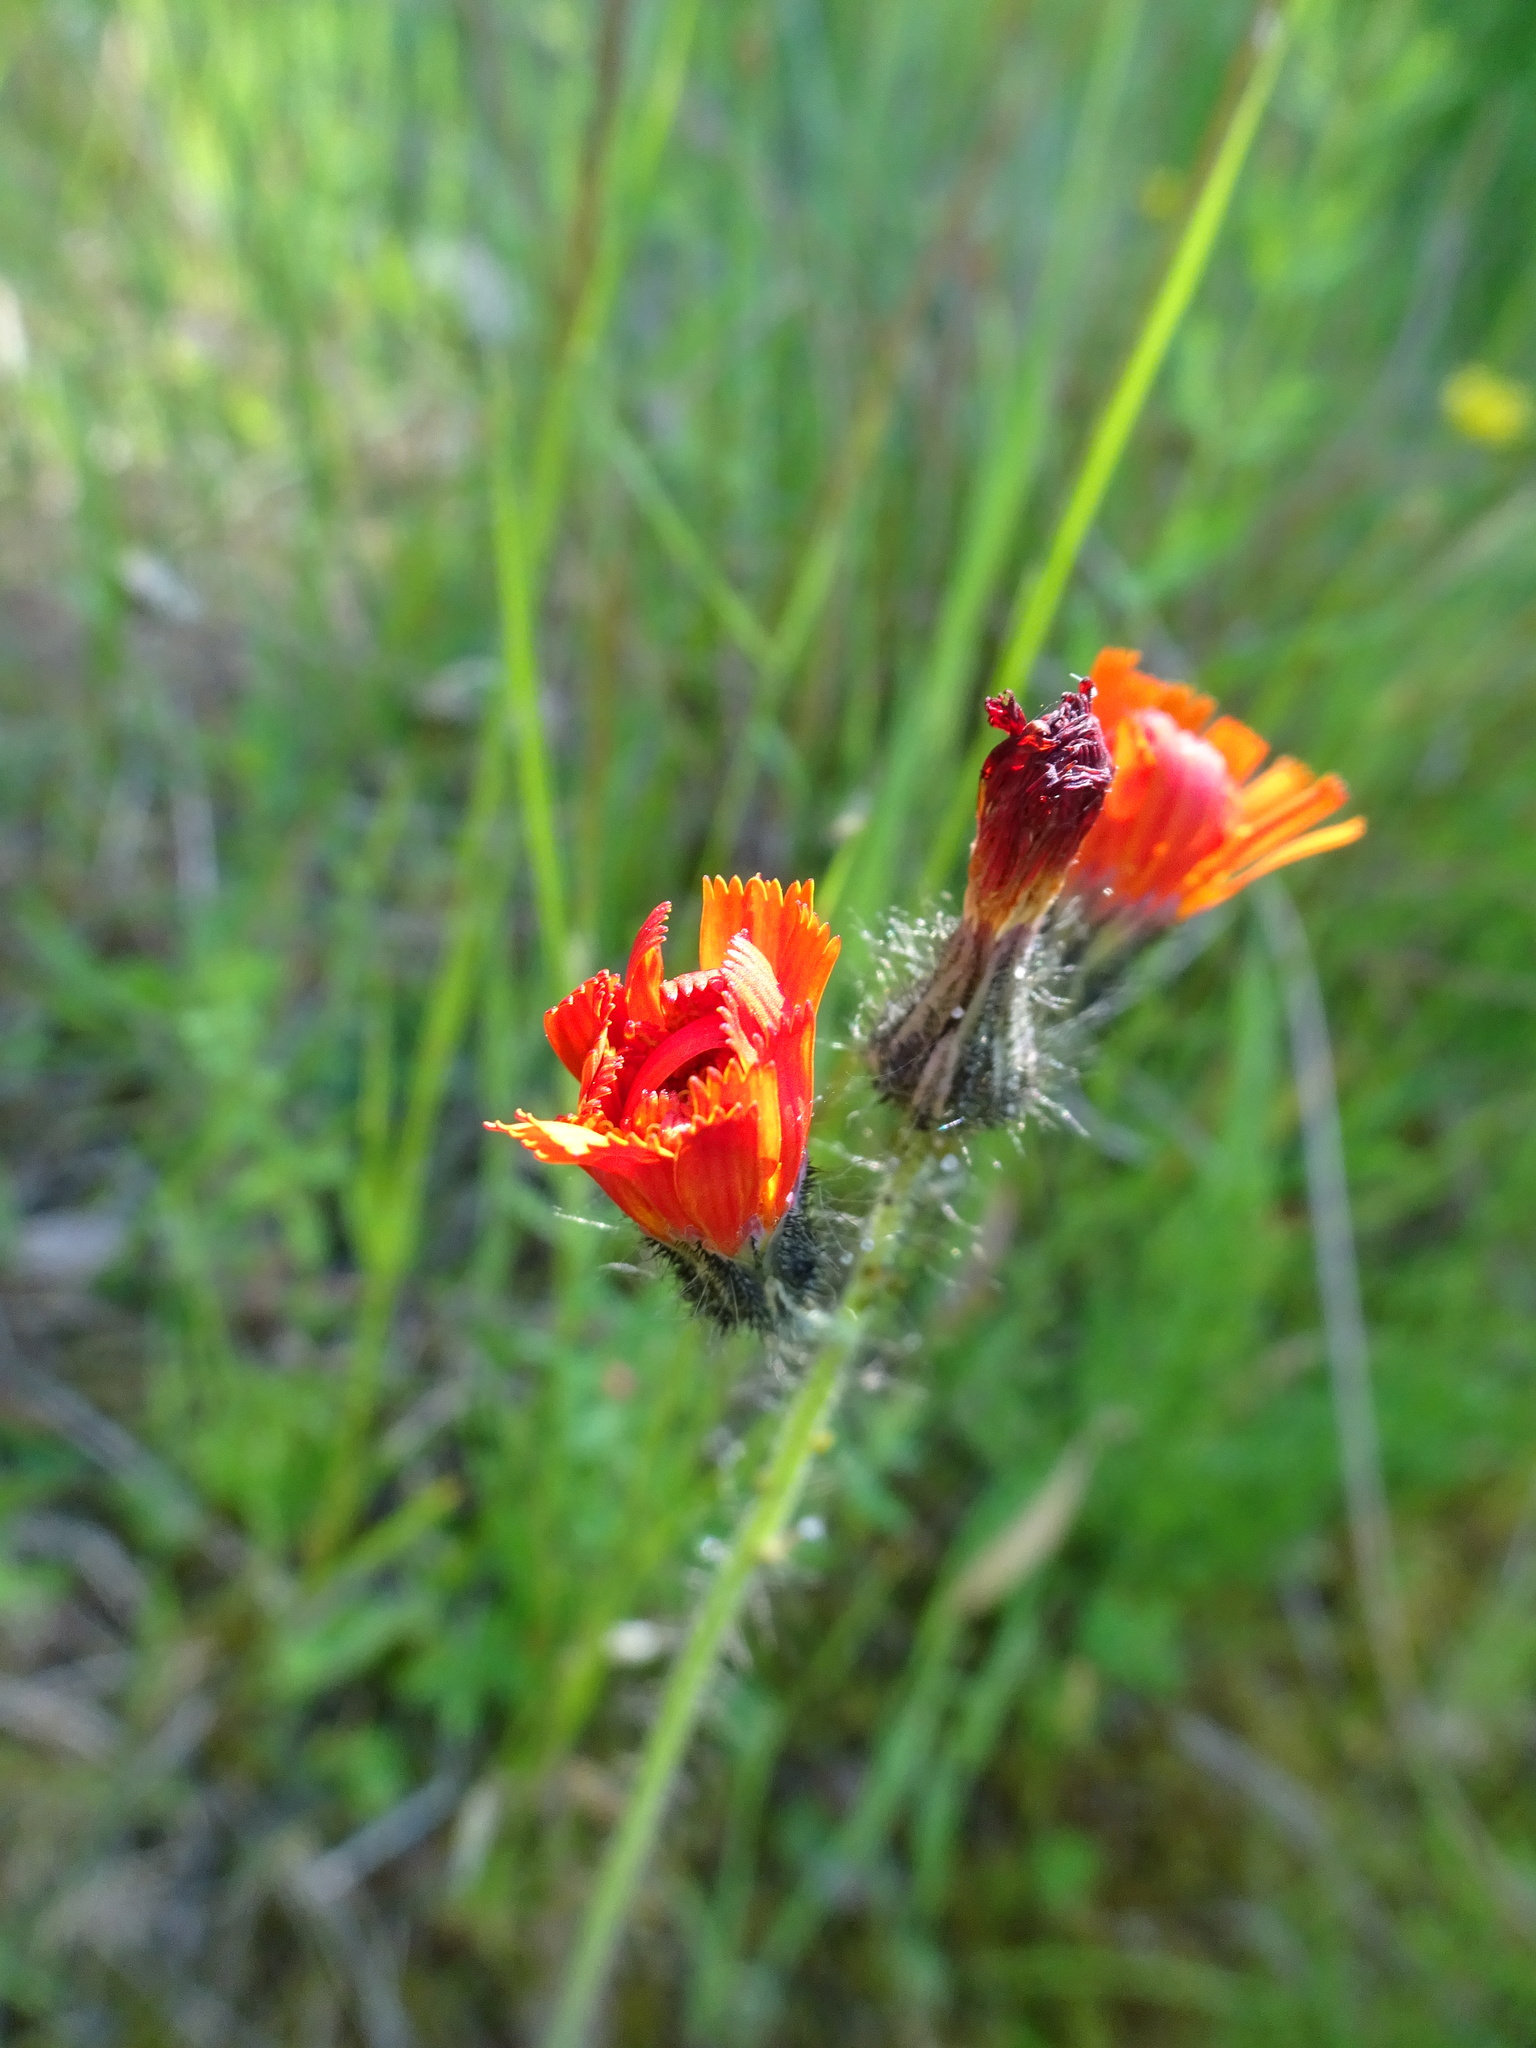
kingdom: Plantae
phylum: Tracheophyta
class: Magnoliopsida
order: Asterales
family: Asteraceae
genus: Pilosella
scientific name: Pilosella aurantiaca
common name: Fox-and-cubs
